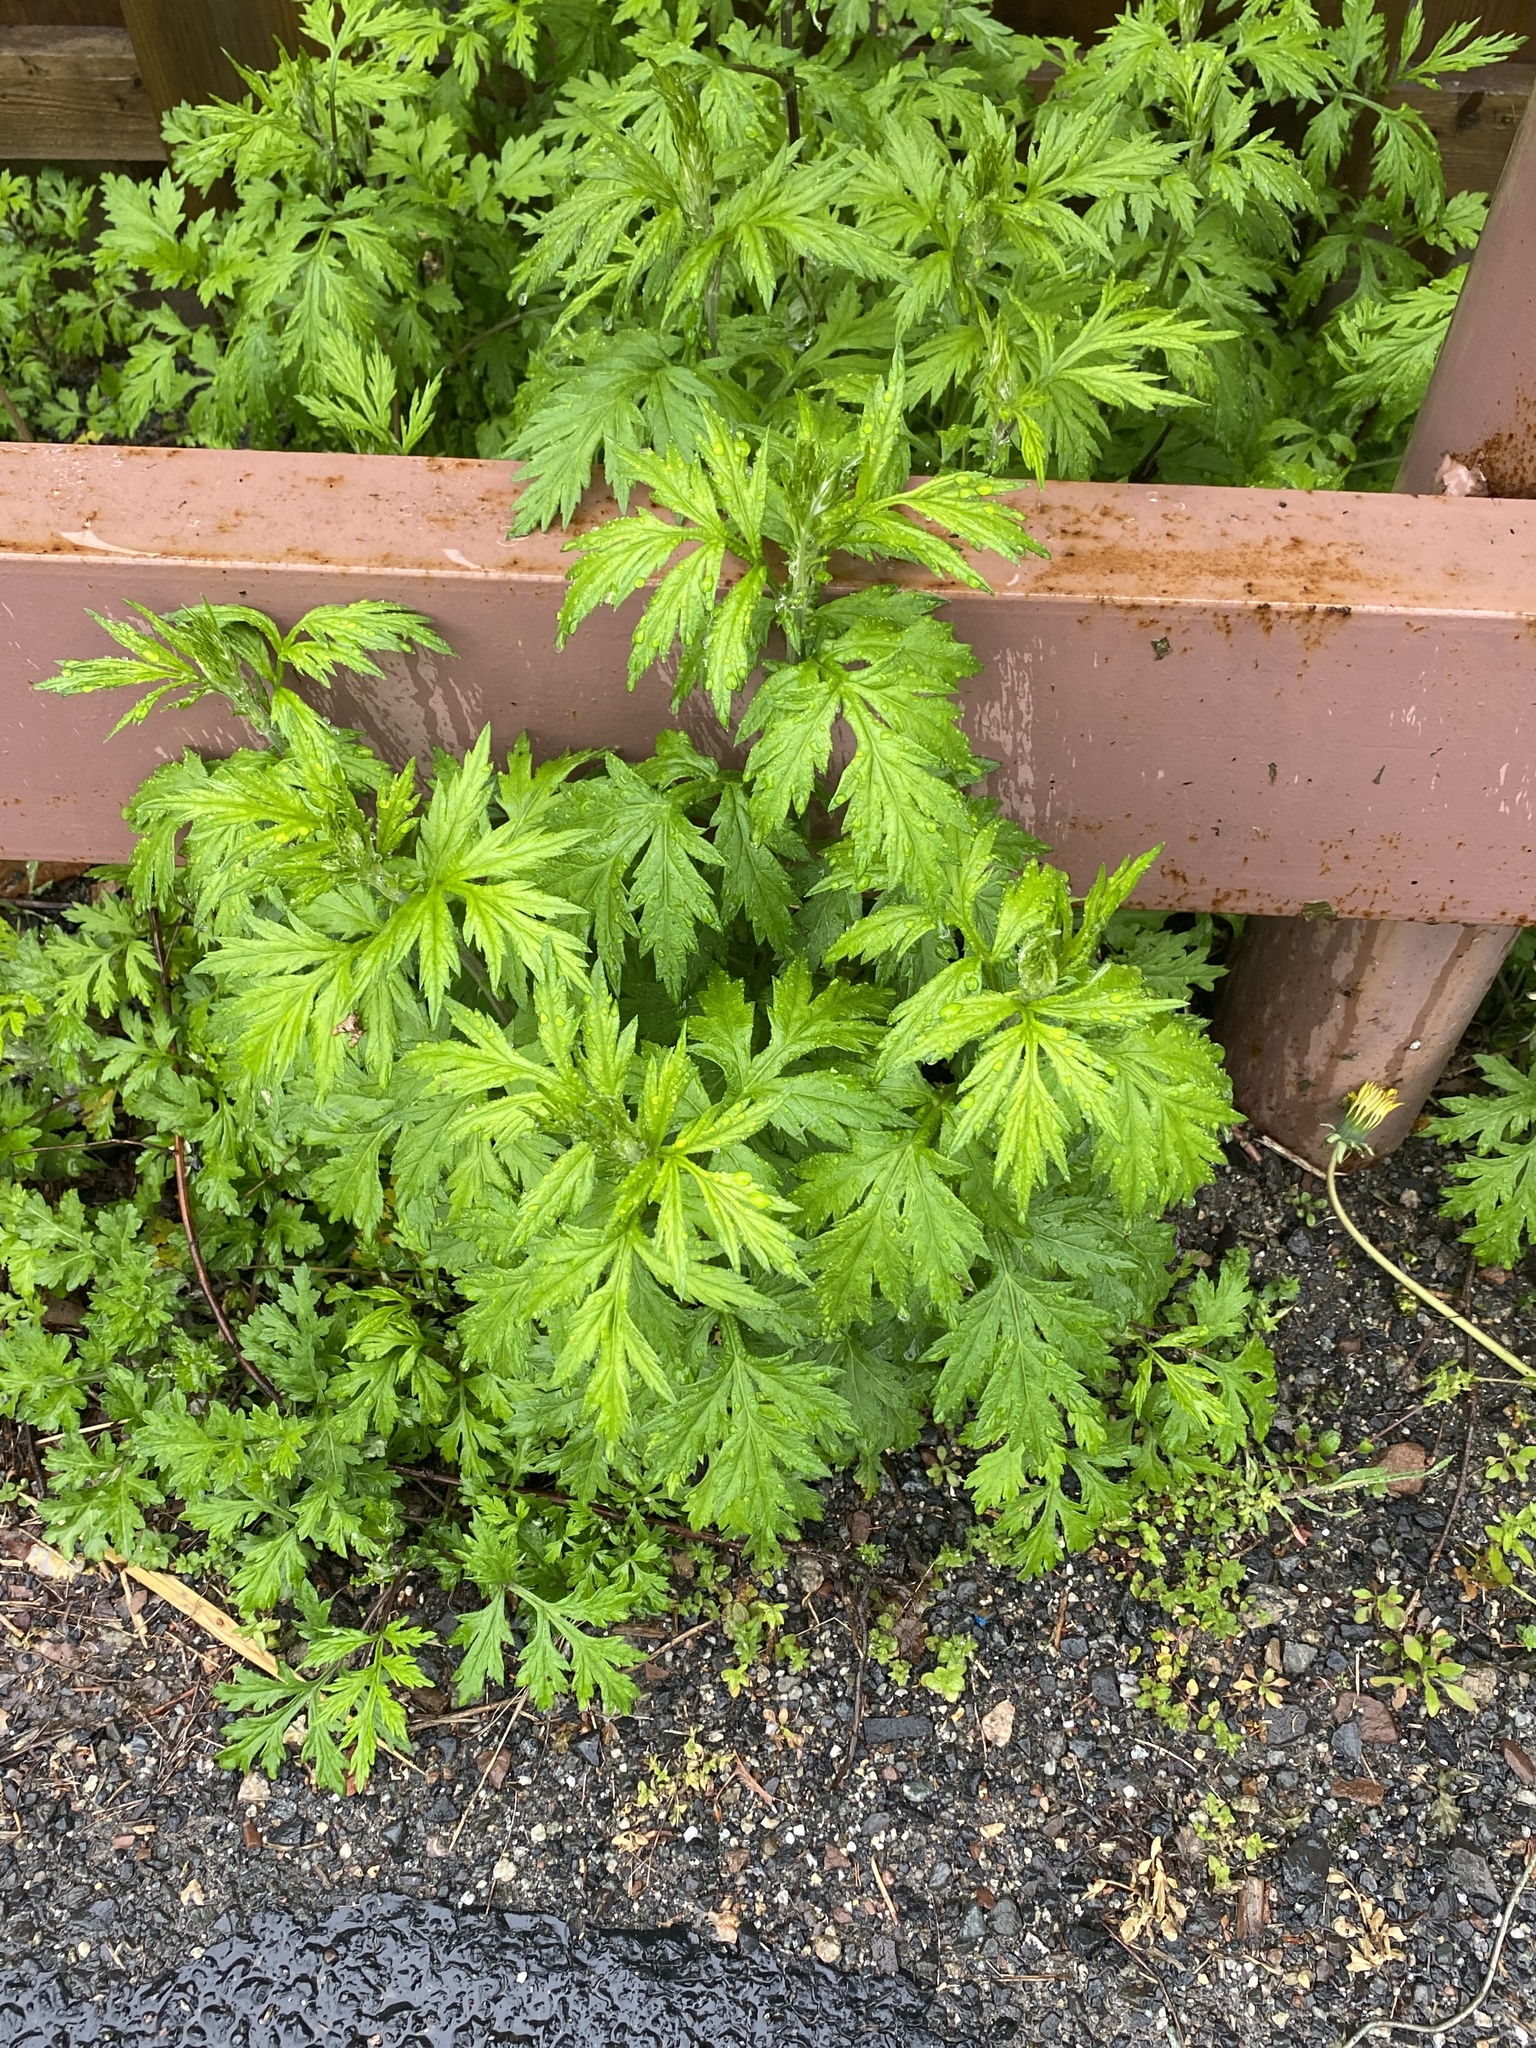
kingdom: Plantae
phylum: Tracheophyta
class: Magnoliopsida
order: Asterales
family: Asteraceae
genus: Artemisia
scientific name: Artemisia vulgaris
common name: Mugwort
